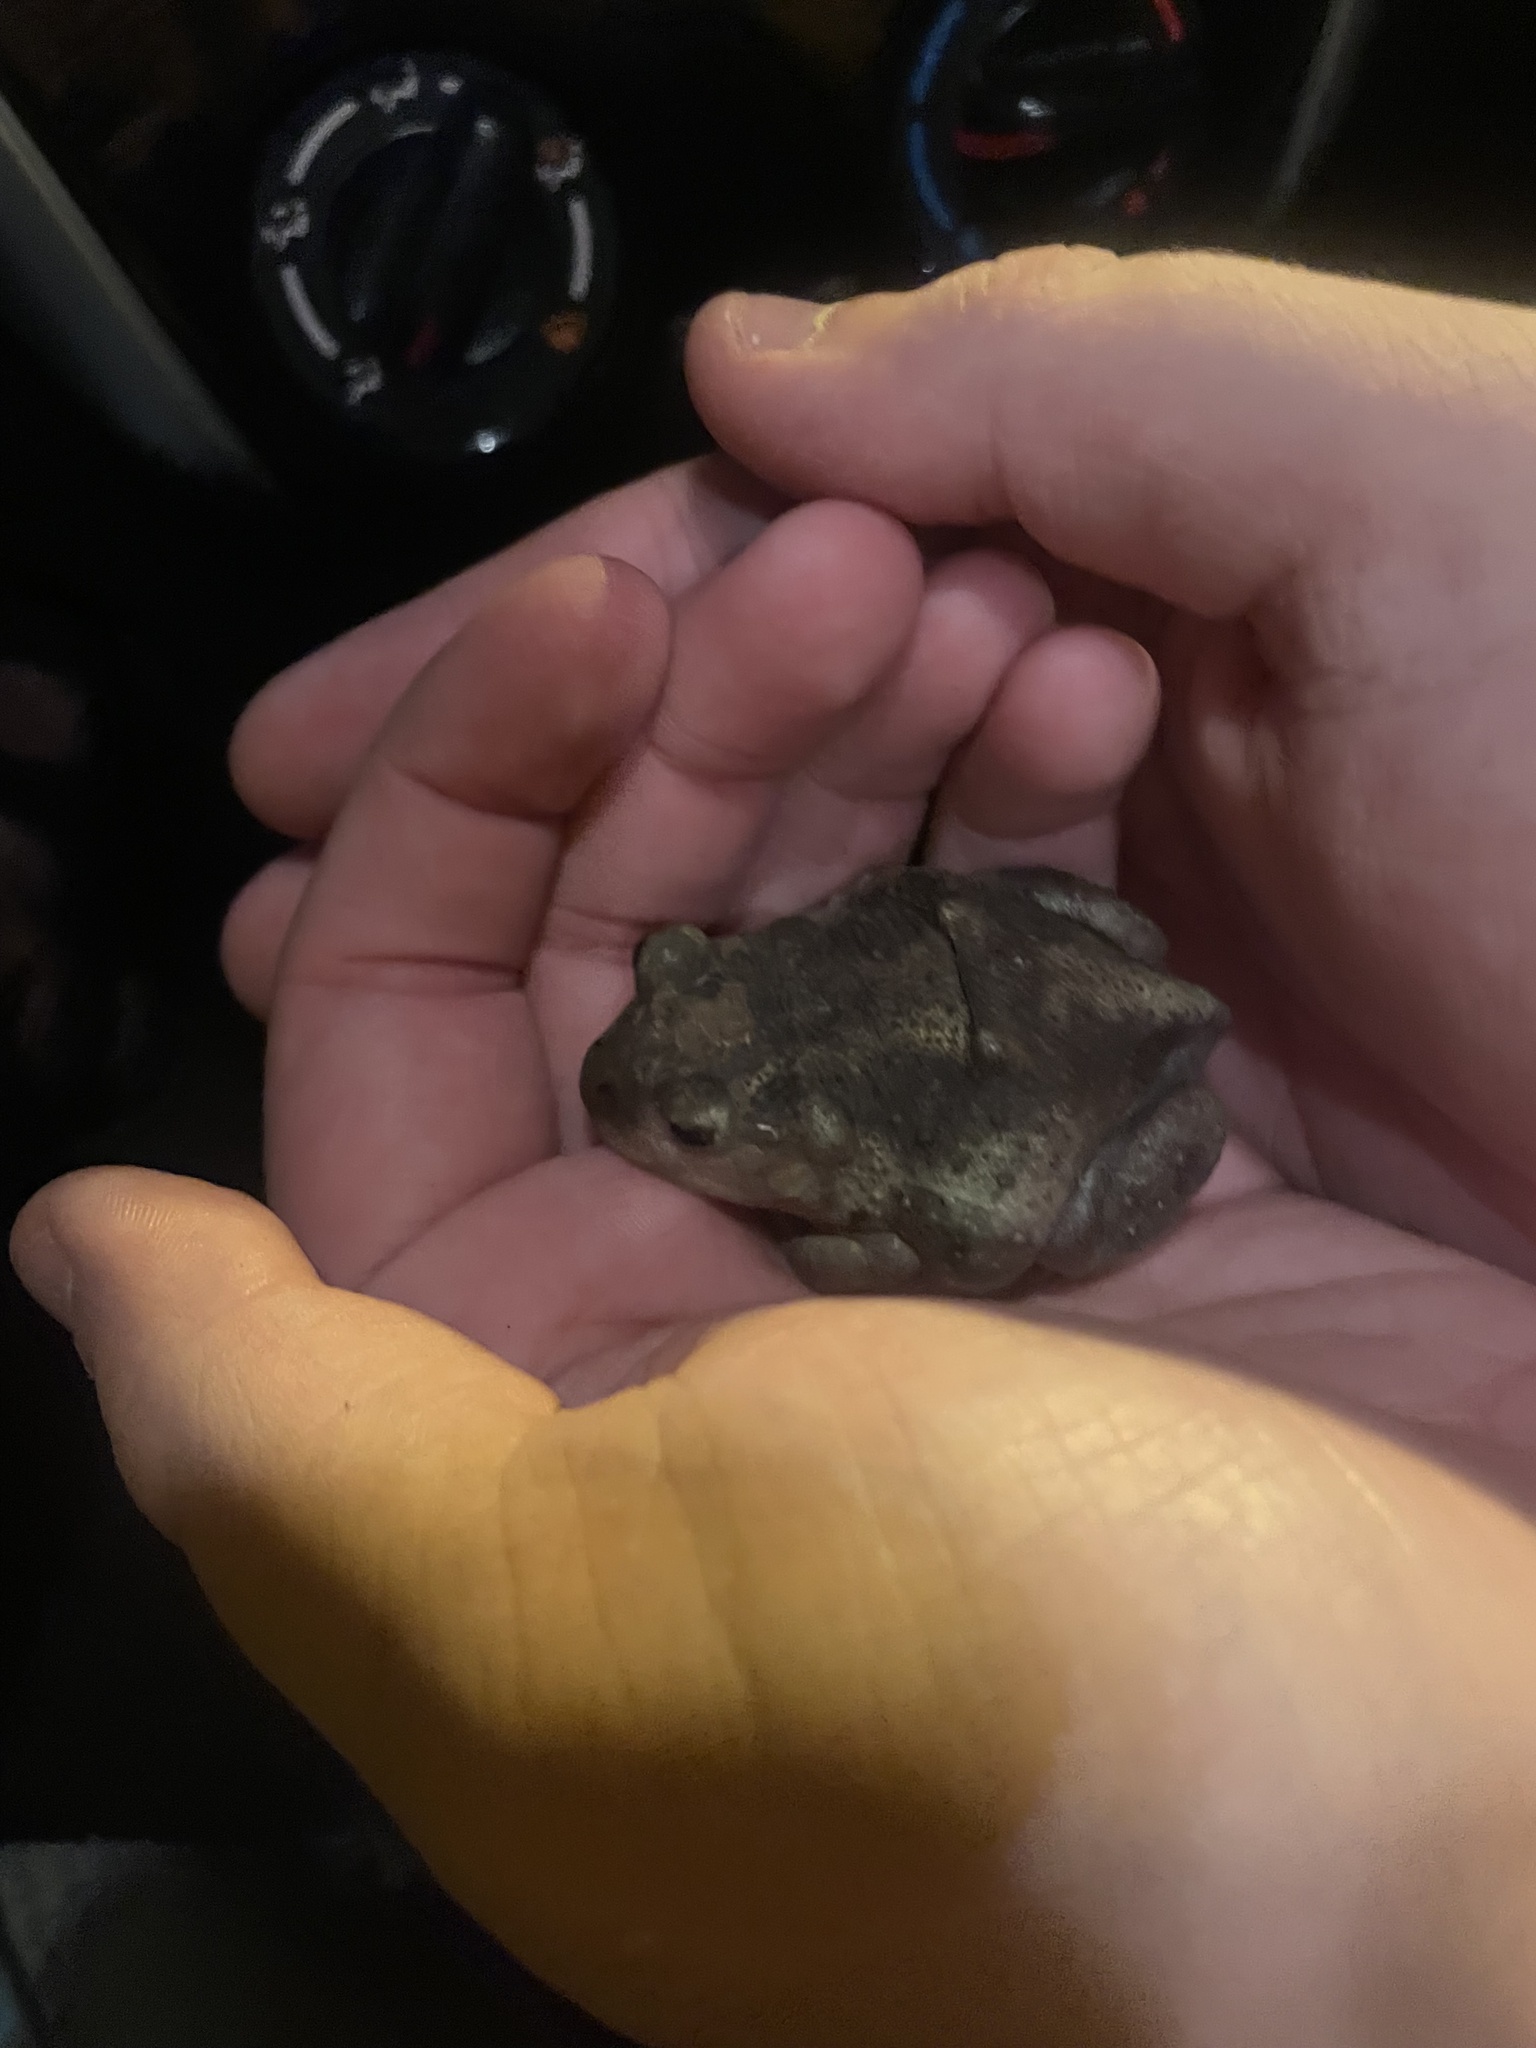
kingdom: Animalia
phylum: Chordata
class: Amphibia
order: Anura
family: Scaphiopodidae
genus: Scaphiopus
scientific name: Scaphiopus holbrookii
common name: Eastern spadefoot toad
